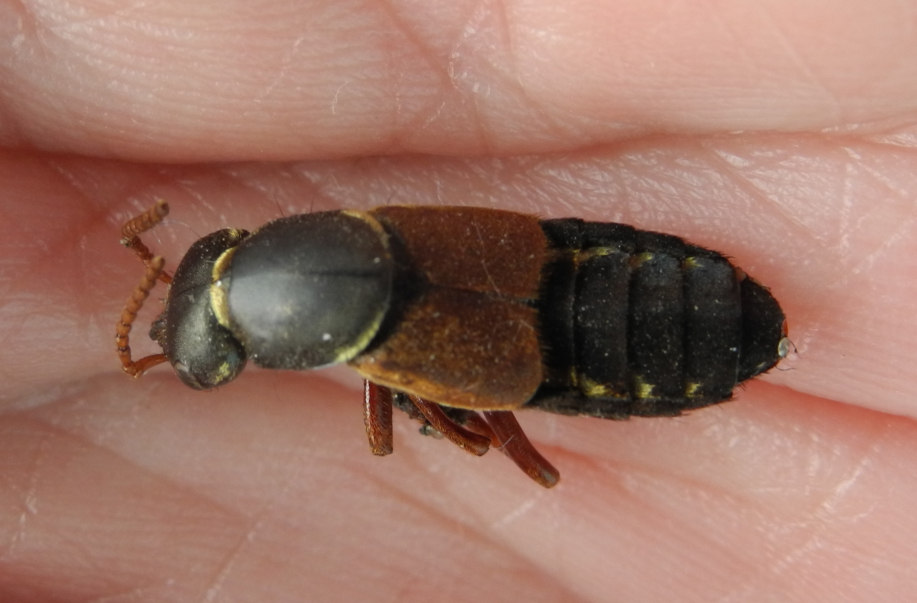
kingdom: Animalia
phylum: Arthropoda
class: Insecta
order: Coleoptera
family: Staphylinidae
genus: Staphylinus
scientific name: Staphylinus caesareus
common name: Staph beetle
